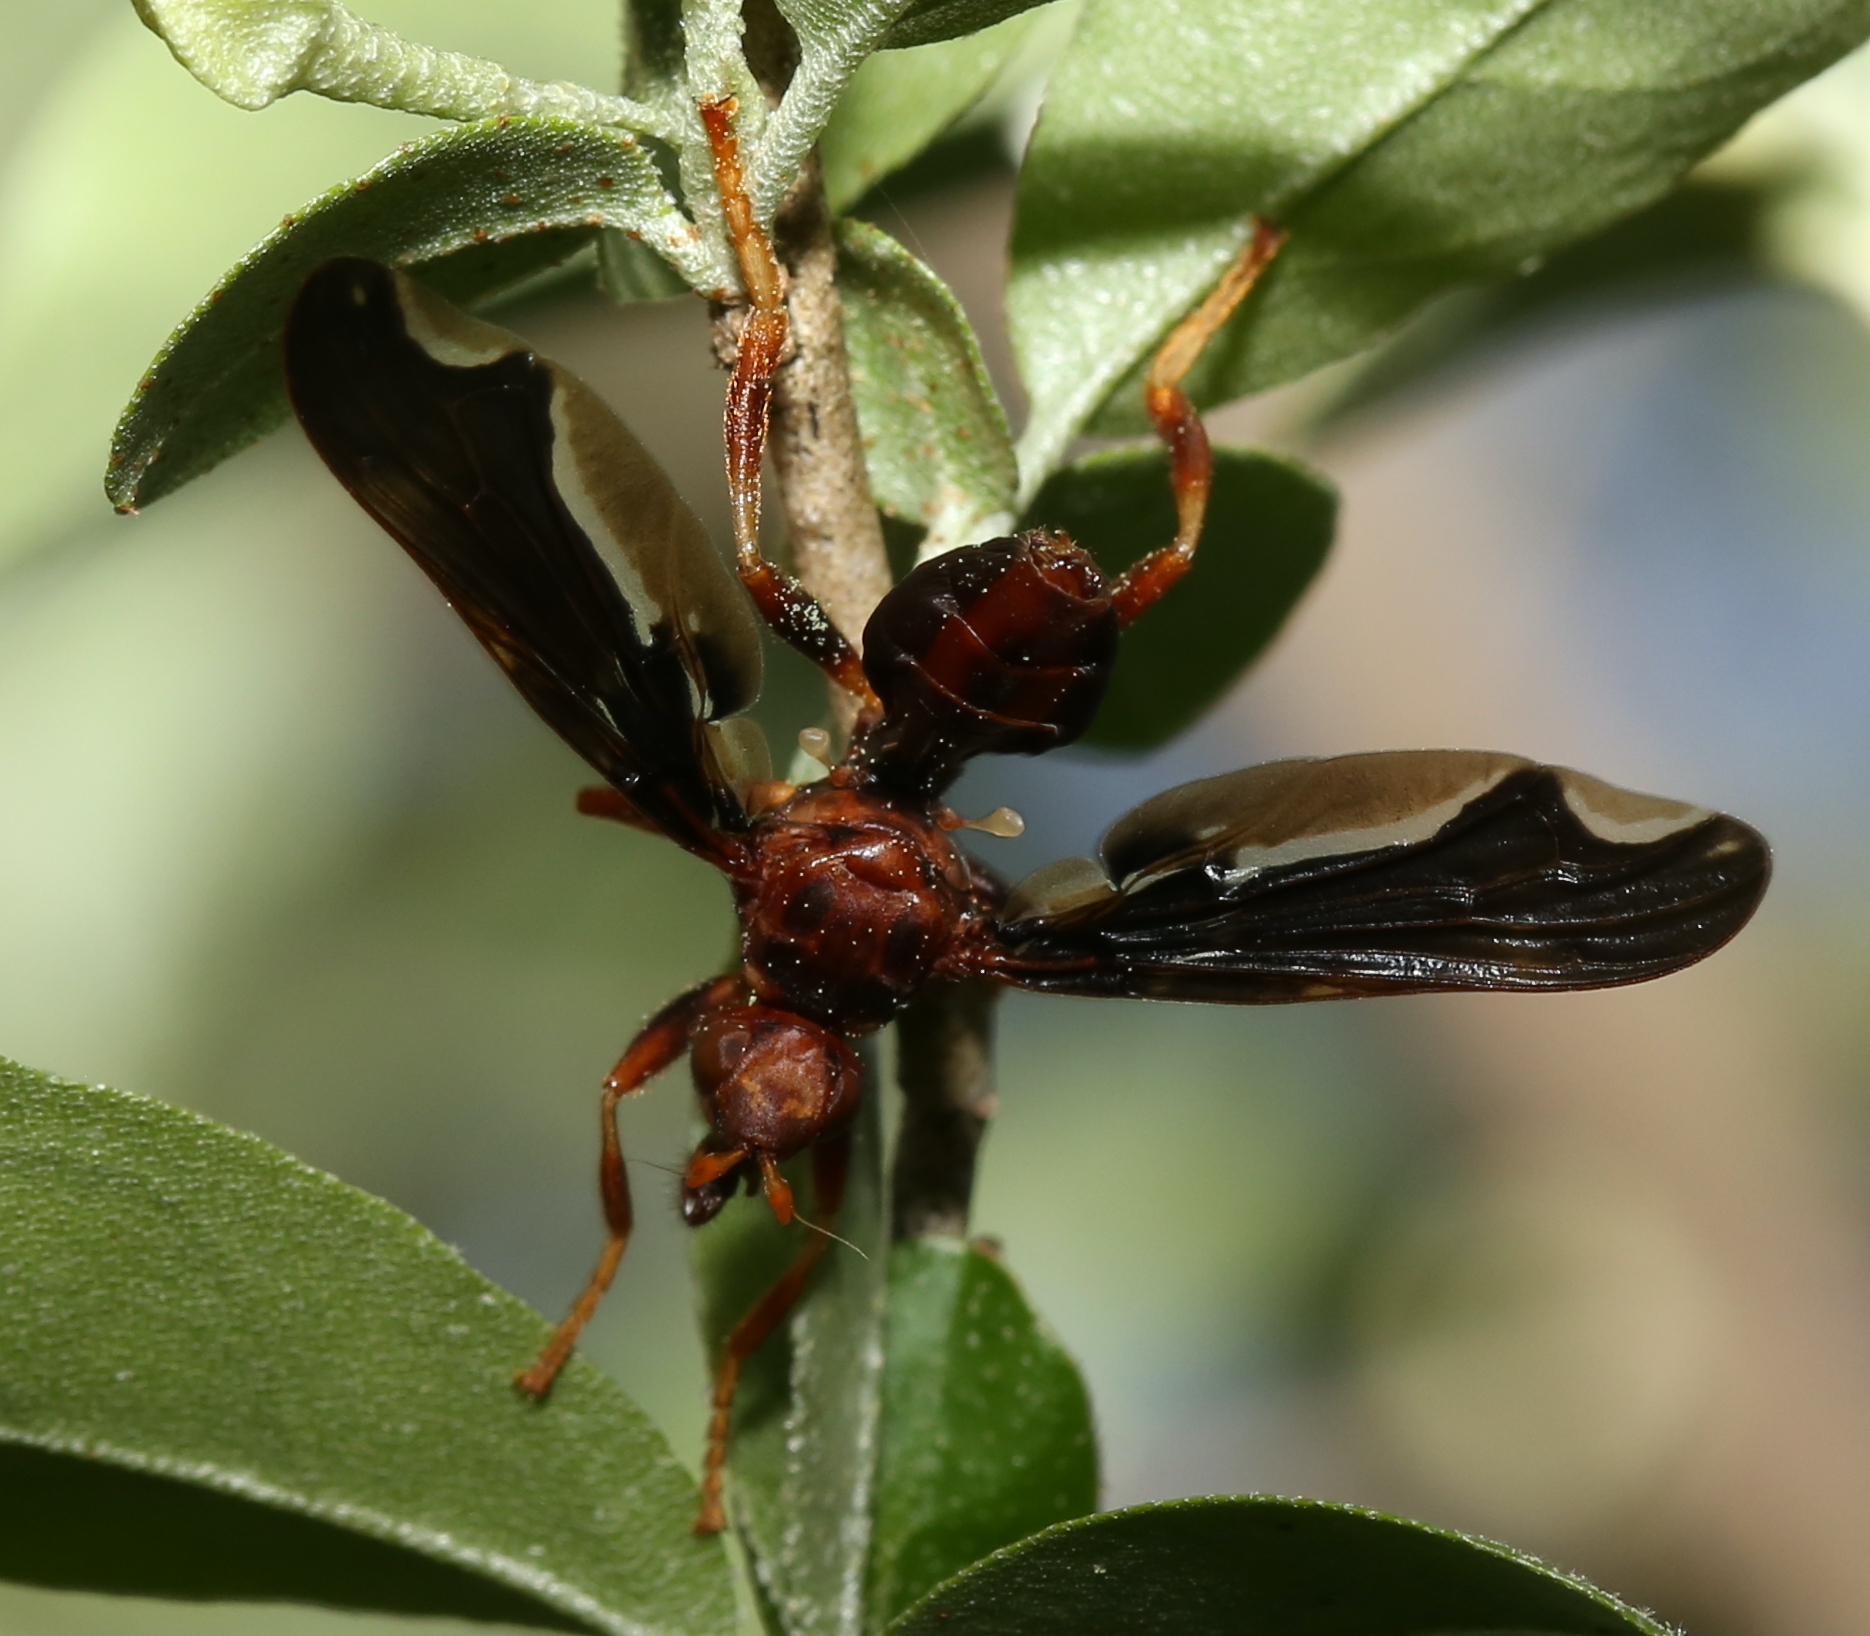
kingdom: Animalia
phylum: Arthropoda
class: Insecta
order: Diptera
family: Pyrgotidae
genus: Pyrgota
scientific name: Pyrgota undata
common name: Waved light fly
